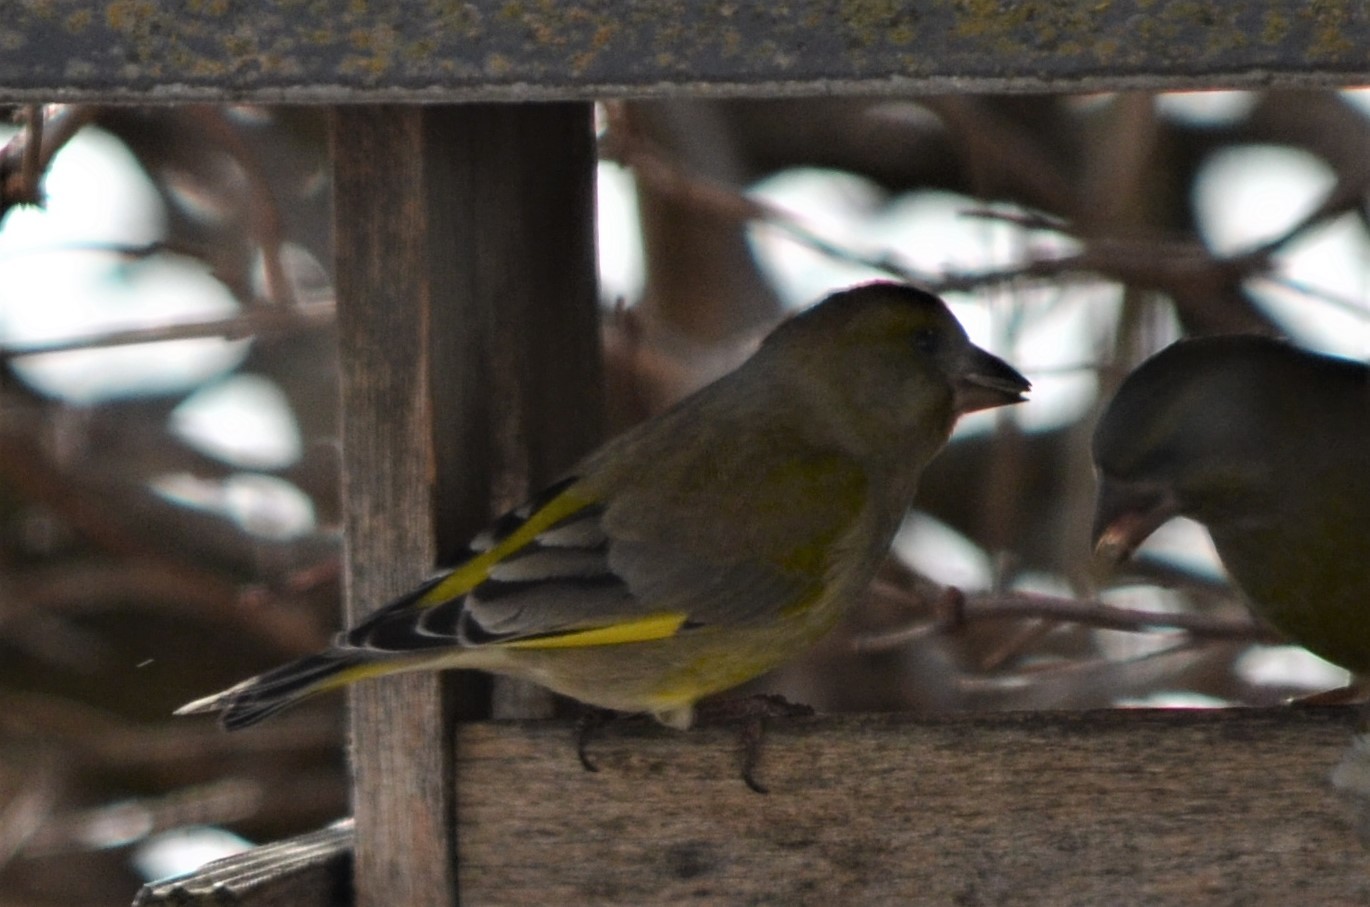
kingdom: Plantae
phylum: Tracheophyta
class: Liliopsida
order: Poales
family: Poaceae
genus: Chloris
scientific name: Chloris chloris
